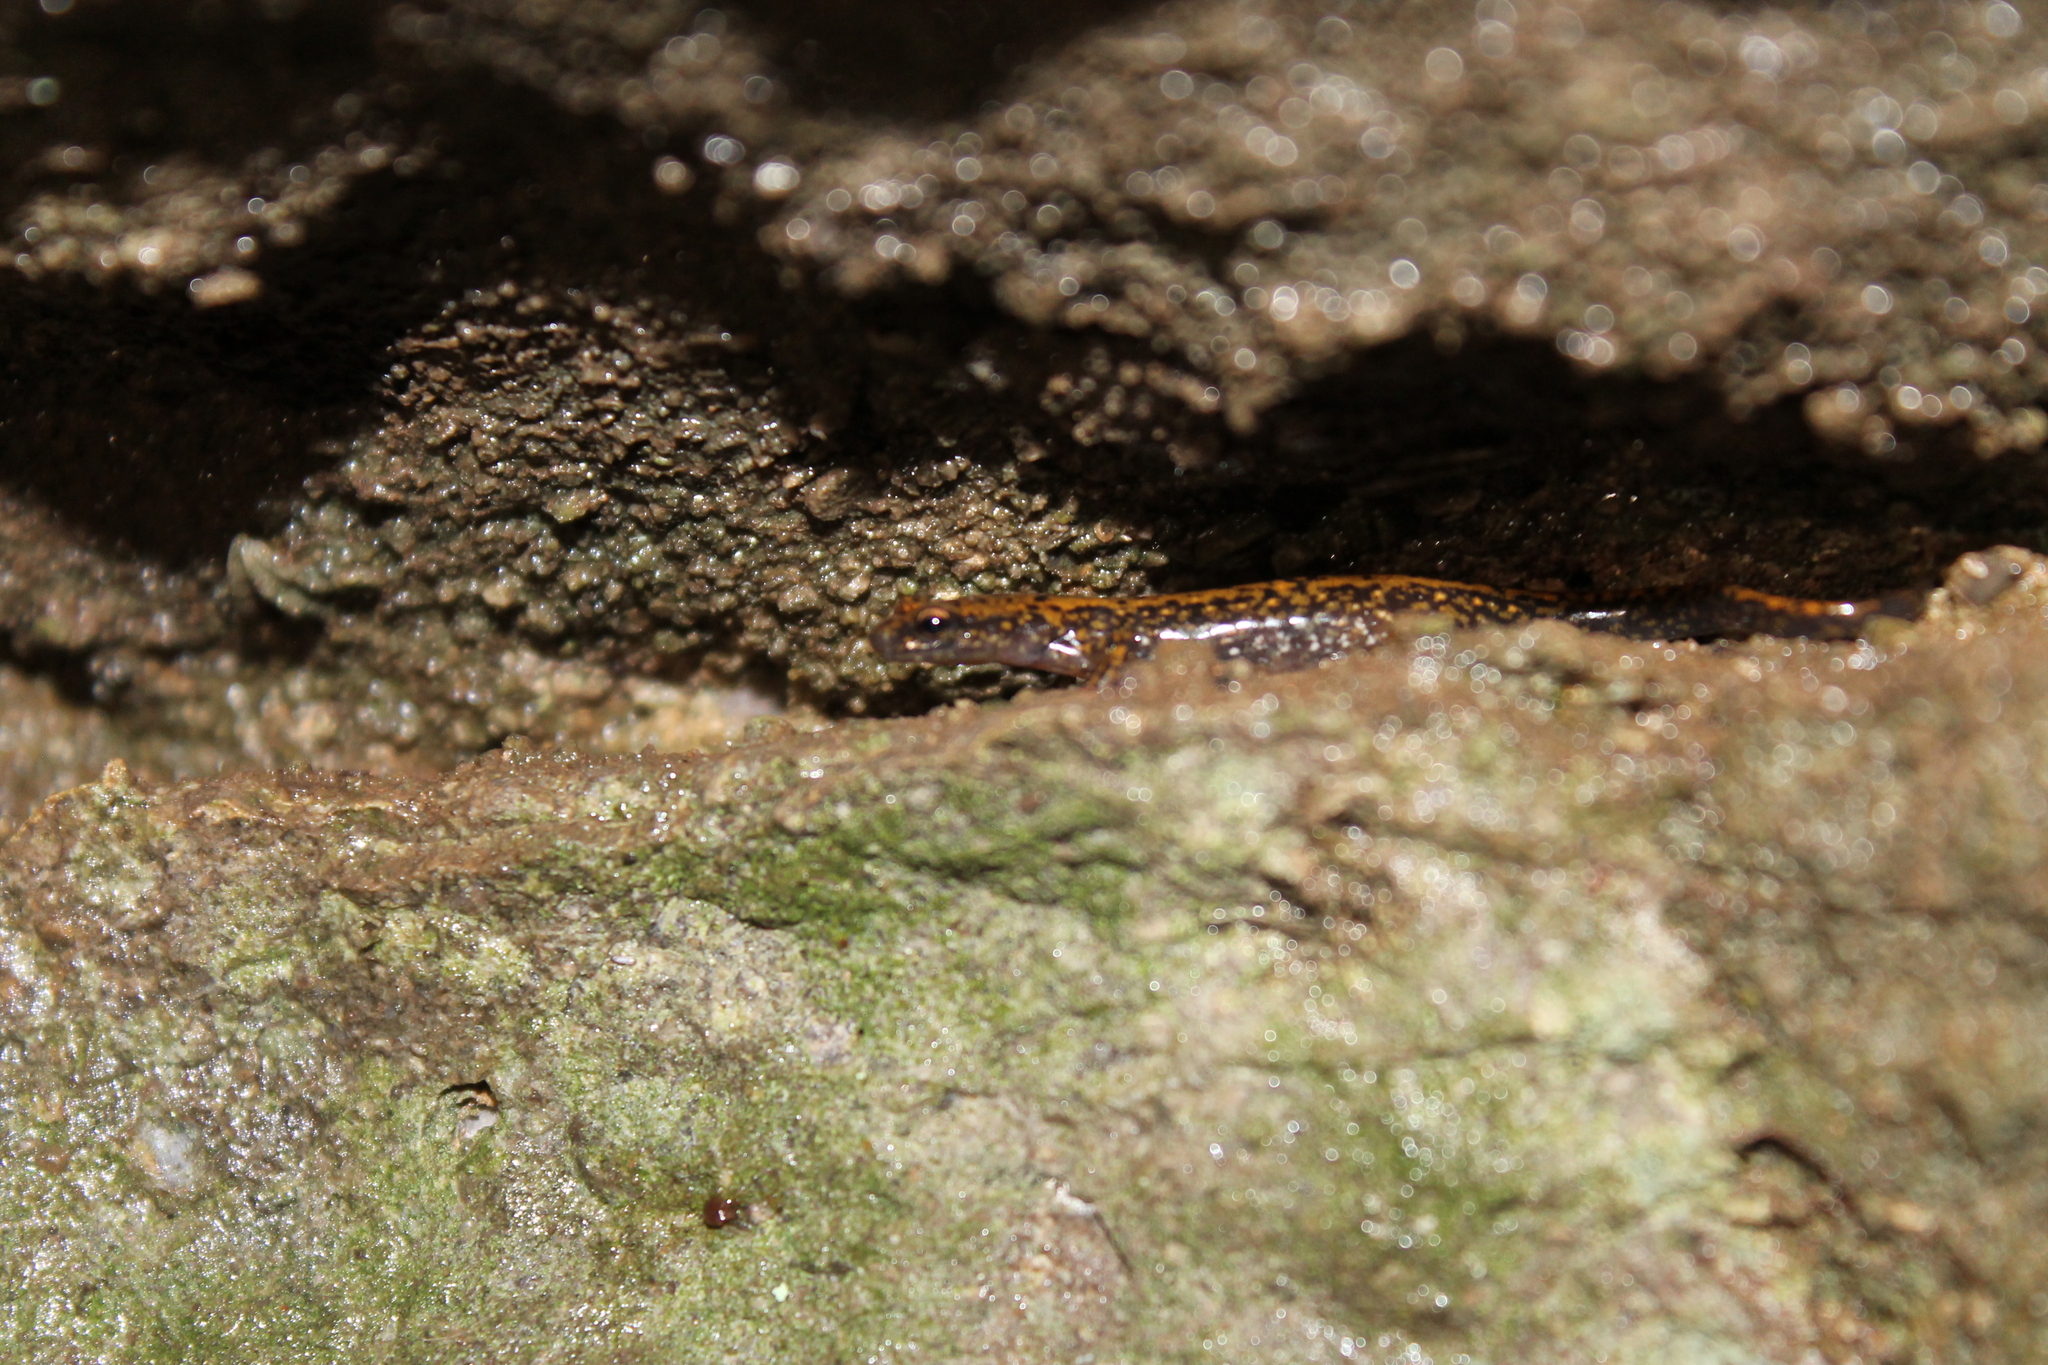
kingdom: Animalia
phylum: Chordata
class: Amphibia
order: Caudata
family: Plethodontidae
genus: Eurycea
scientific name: Eurycea lucifuga
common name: Cave salamander
